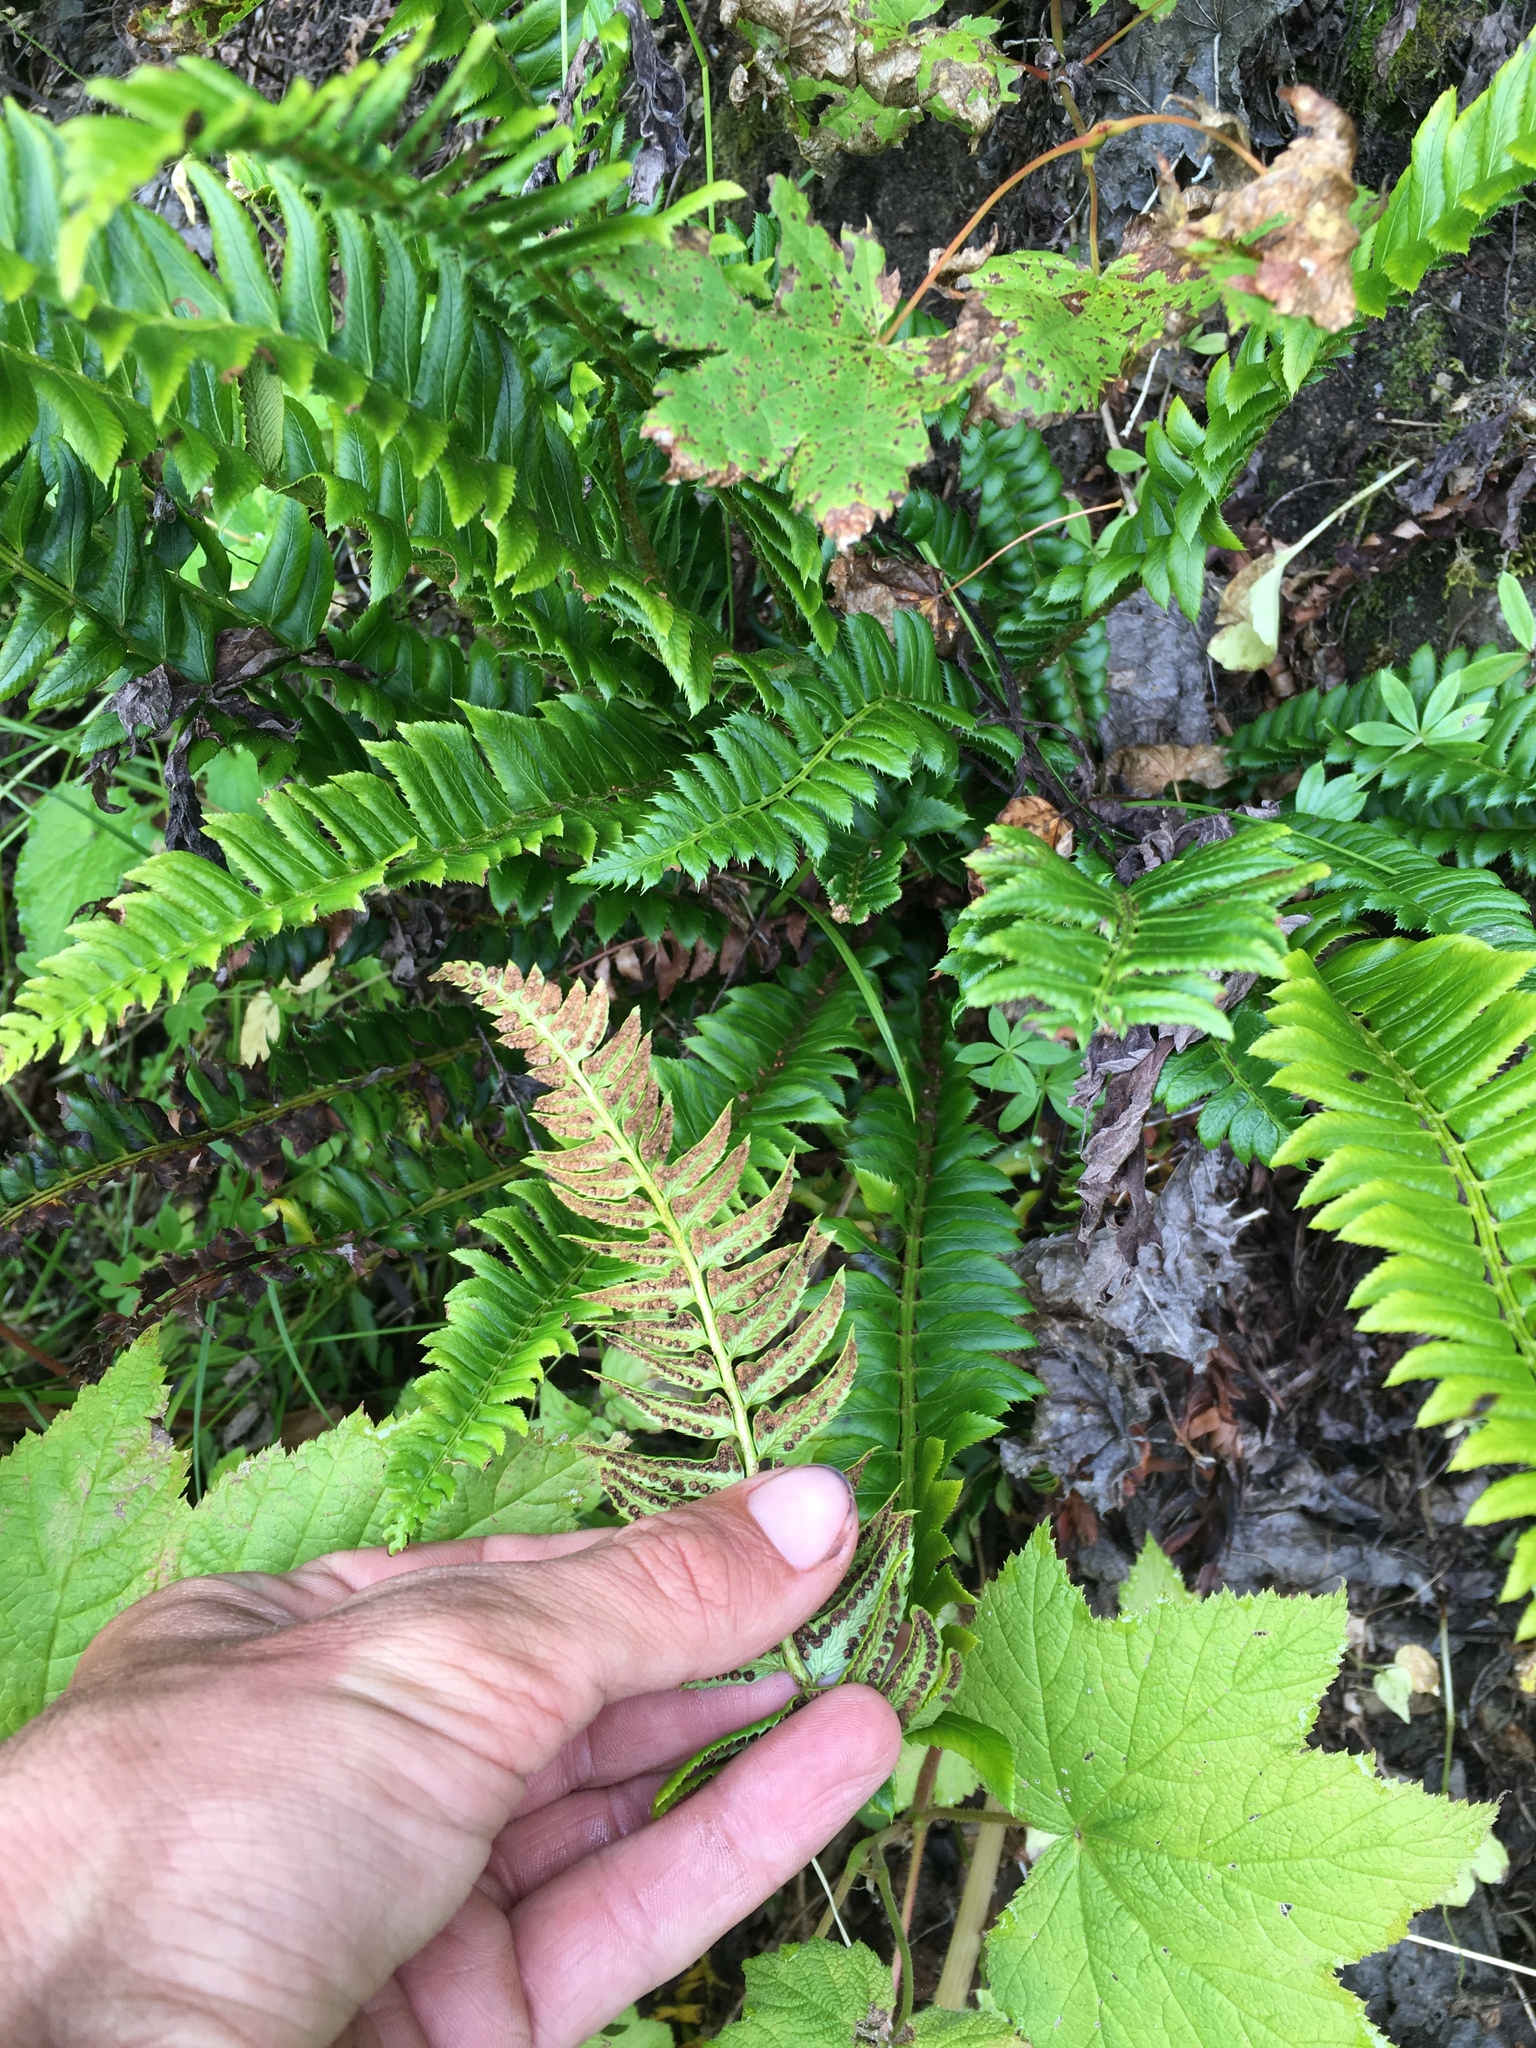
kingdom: Plantae
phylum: Tracheophyta
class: Polypodiopsida
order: Polypodiales
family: Dryopteridaceae
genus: Polystichum
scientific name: Polystichum lonchitis
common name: Holly fern
